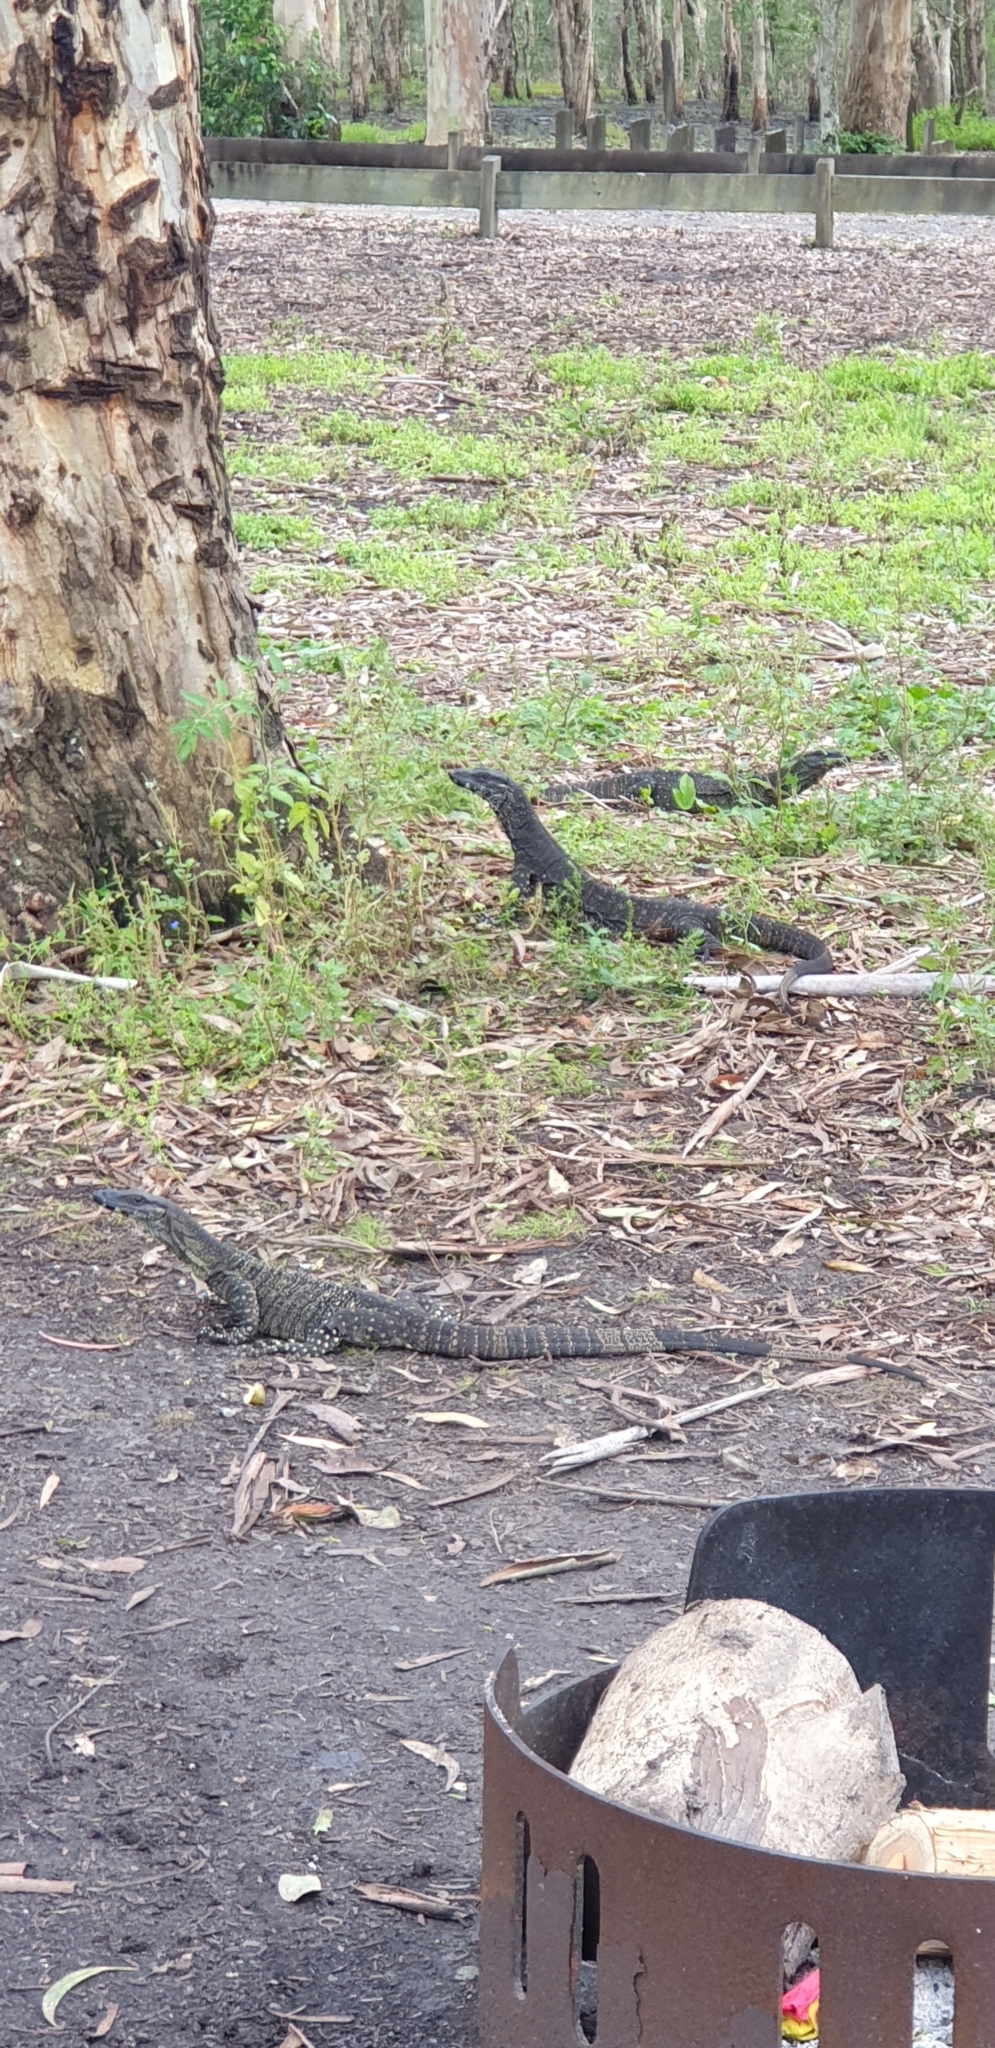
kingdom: Animalia
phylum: Chordata
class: Squamata
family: Varanidae
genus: Varanus
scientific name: Varanus varius
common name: Lace monitor
